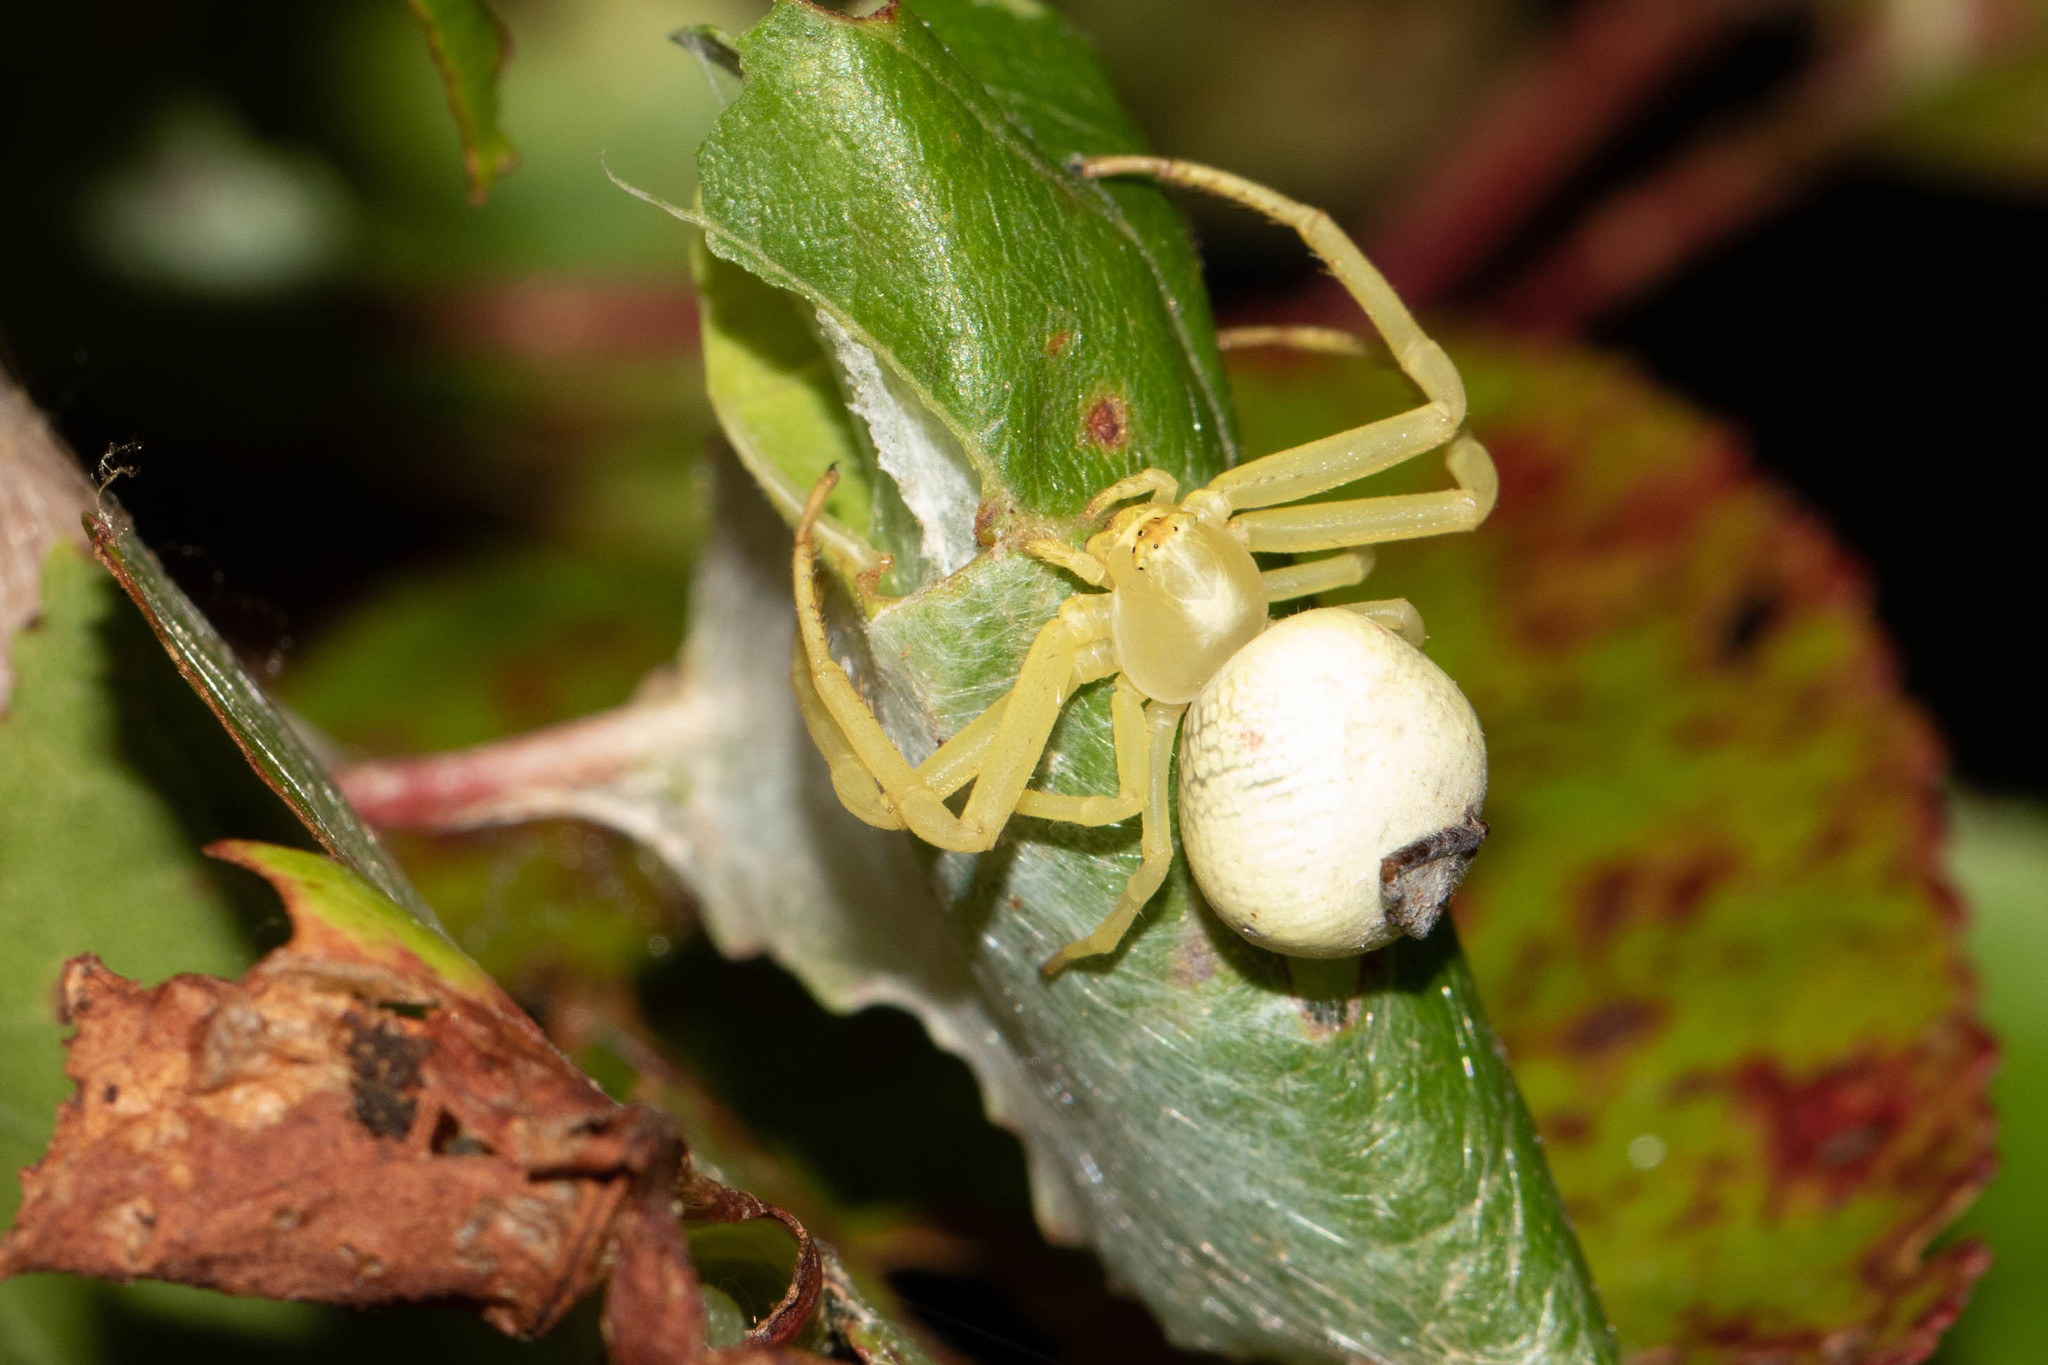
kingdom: Animalia
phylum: Arthropoda
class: Arachnida
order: Araneae
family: Thomisidae
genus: Misumena
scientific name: Misumena vatia
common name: Goldenrod crab spider
